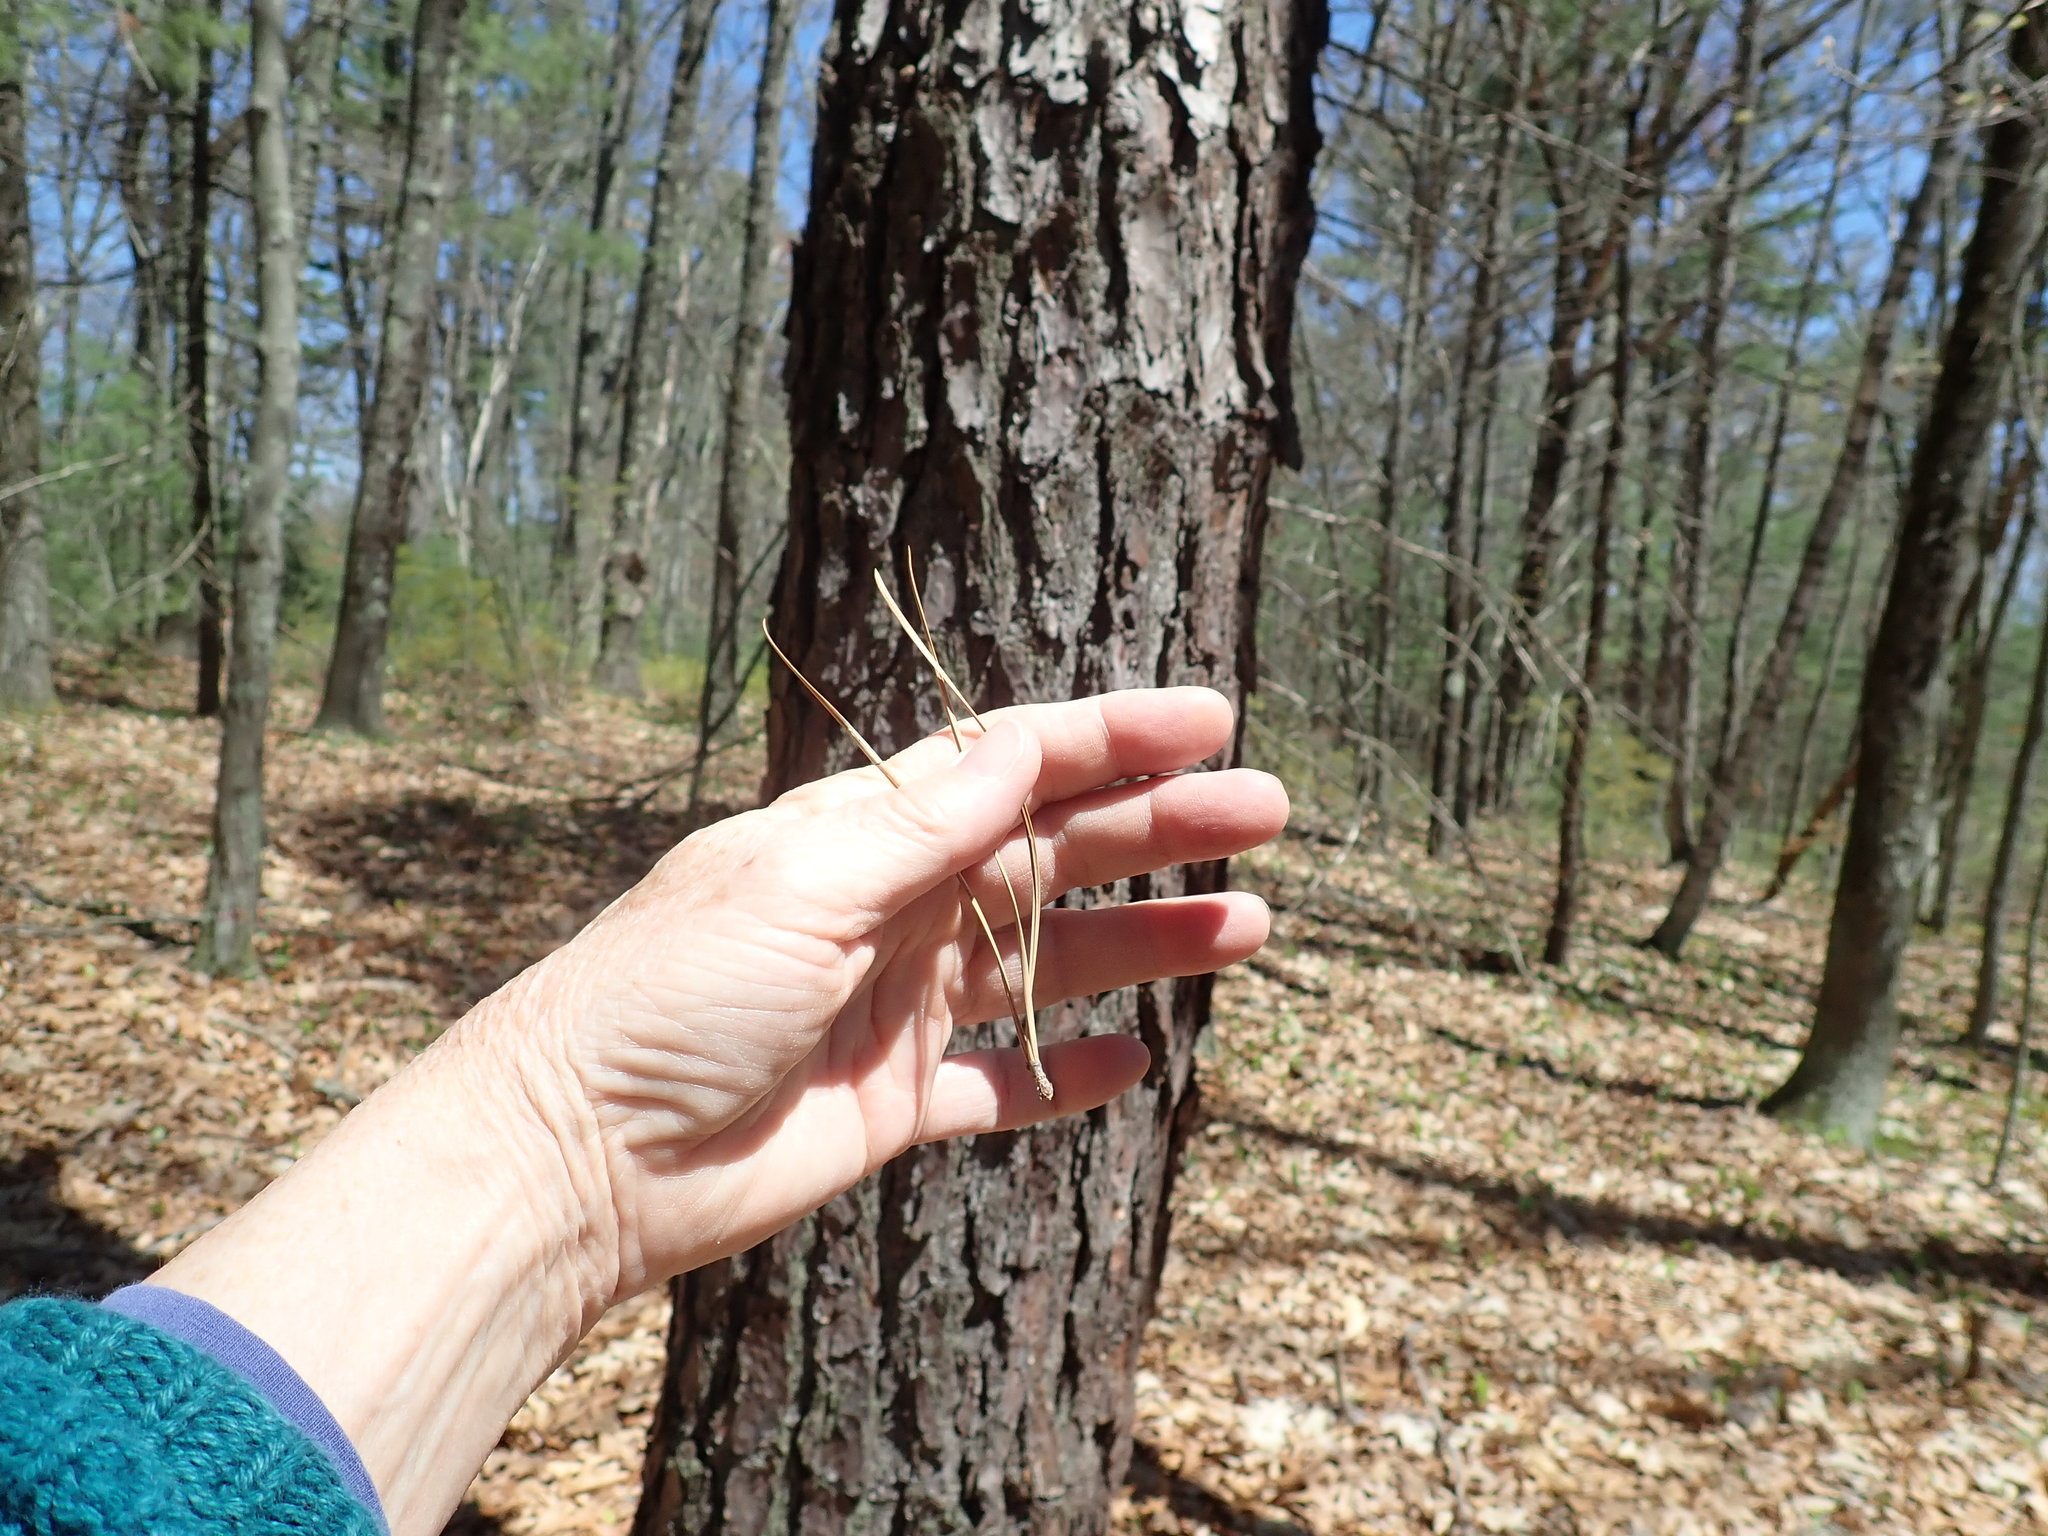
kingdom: Plantae
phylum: Tracheophyta
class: Pinopsida
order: Pinales
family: Pinaceae
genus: Pinus
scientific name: Pinus rigida
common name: Pitch pine
